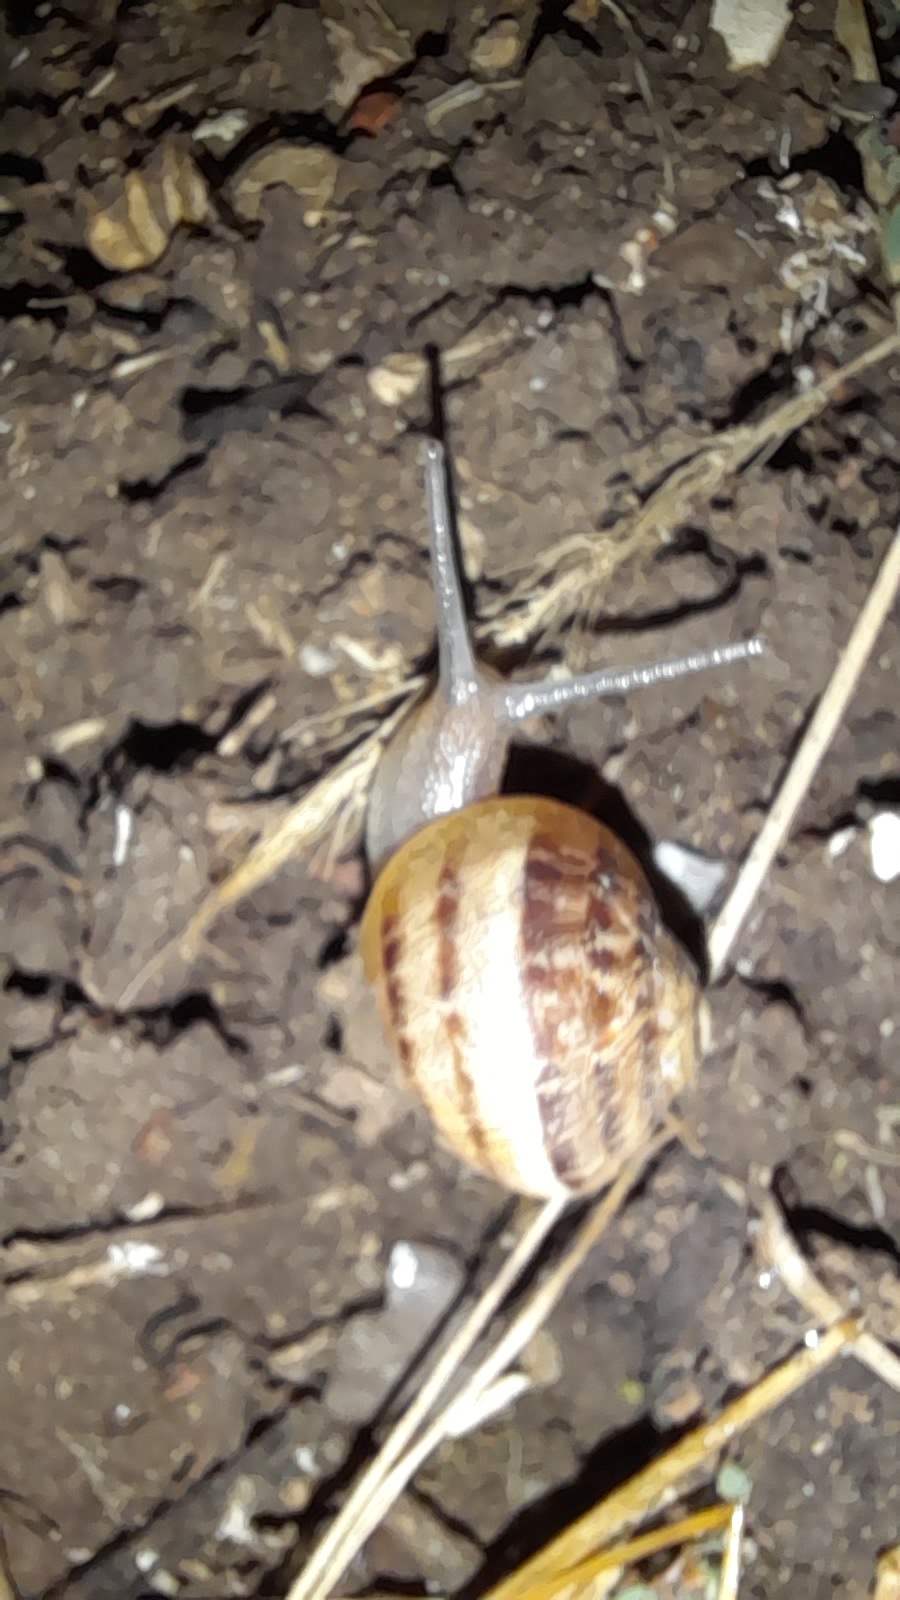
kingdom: Animalia
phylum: Mollusca
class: Gastropoda
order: Stylommatophora
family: Helicidae
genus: Cornu
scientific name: Cornu aspersum
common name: Brown garden snail
